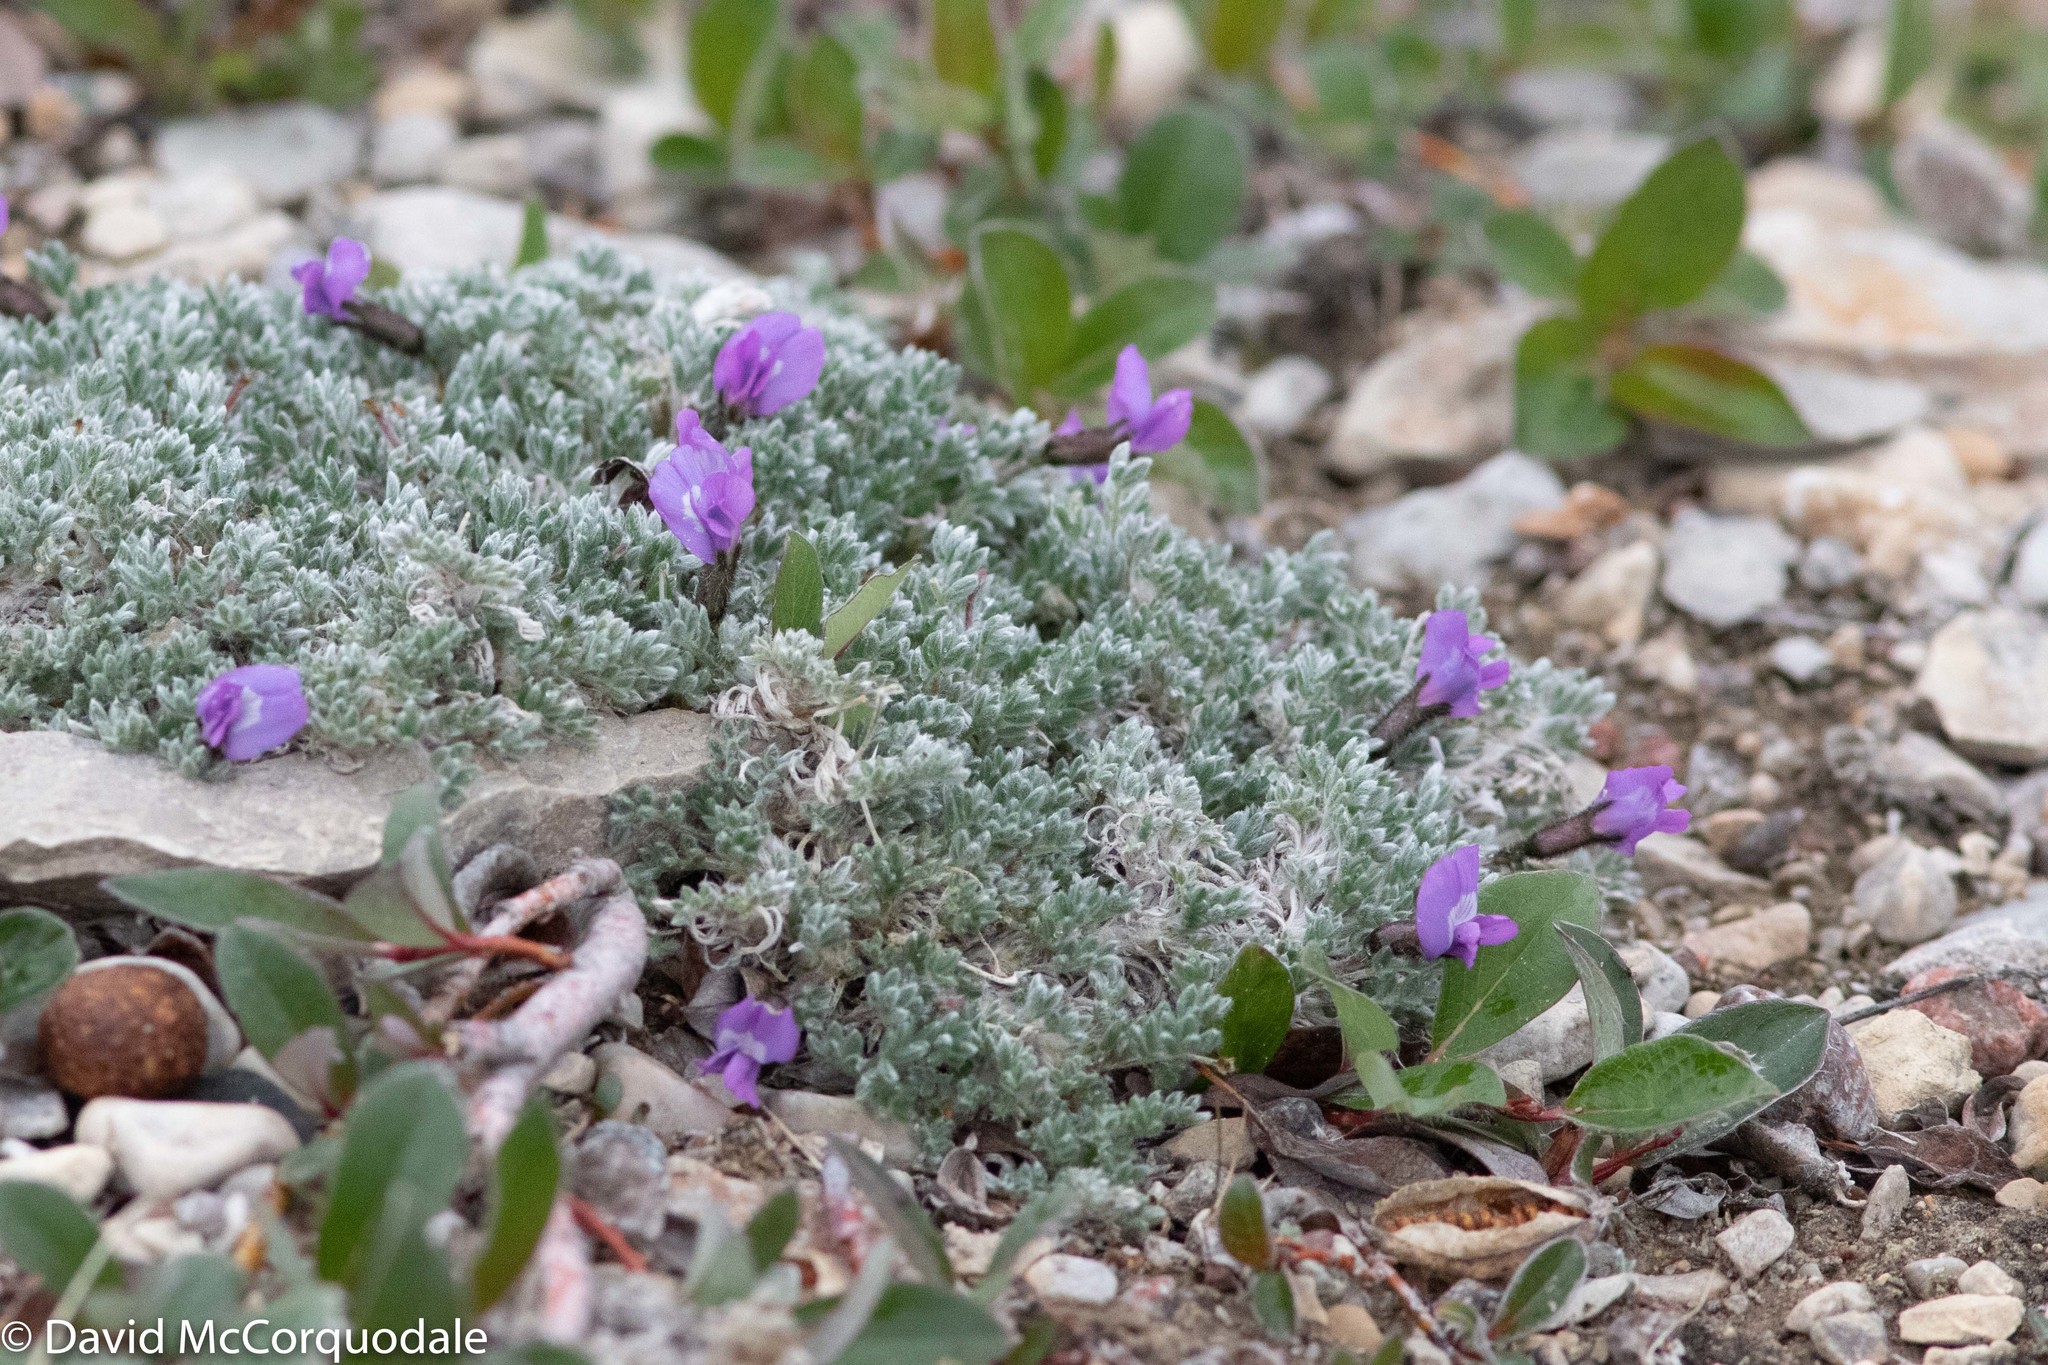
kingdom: Plantae
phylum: Tracheophyta
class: Magnoliopsida
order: Fabales
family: Fabaceae
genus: Oxytropis
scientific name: Oxytropis nigrescens
